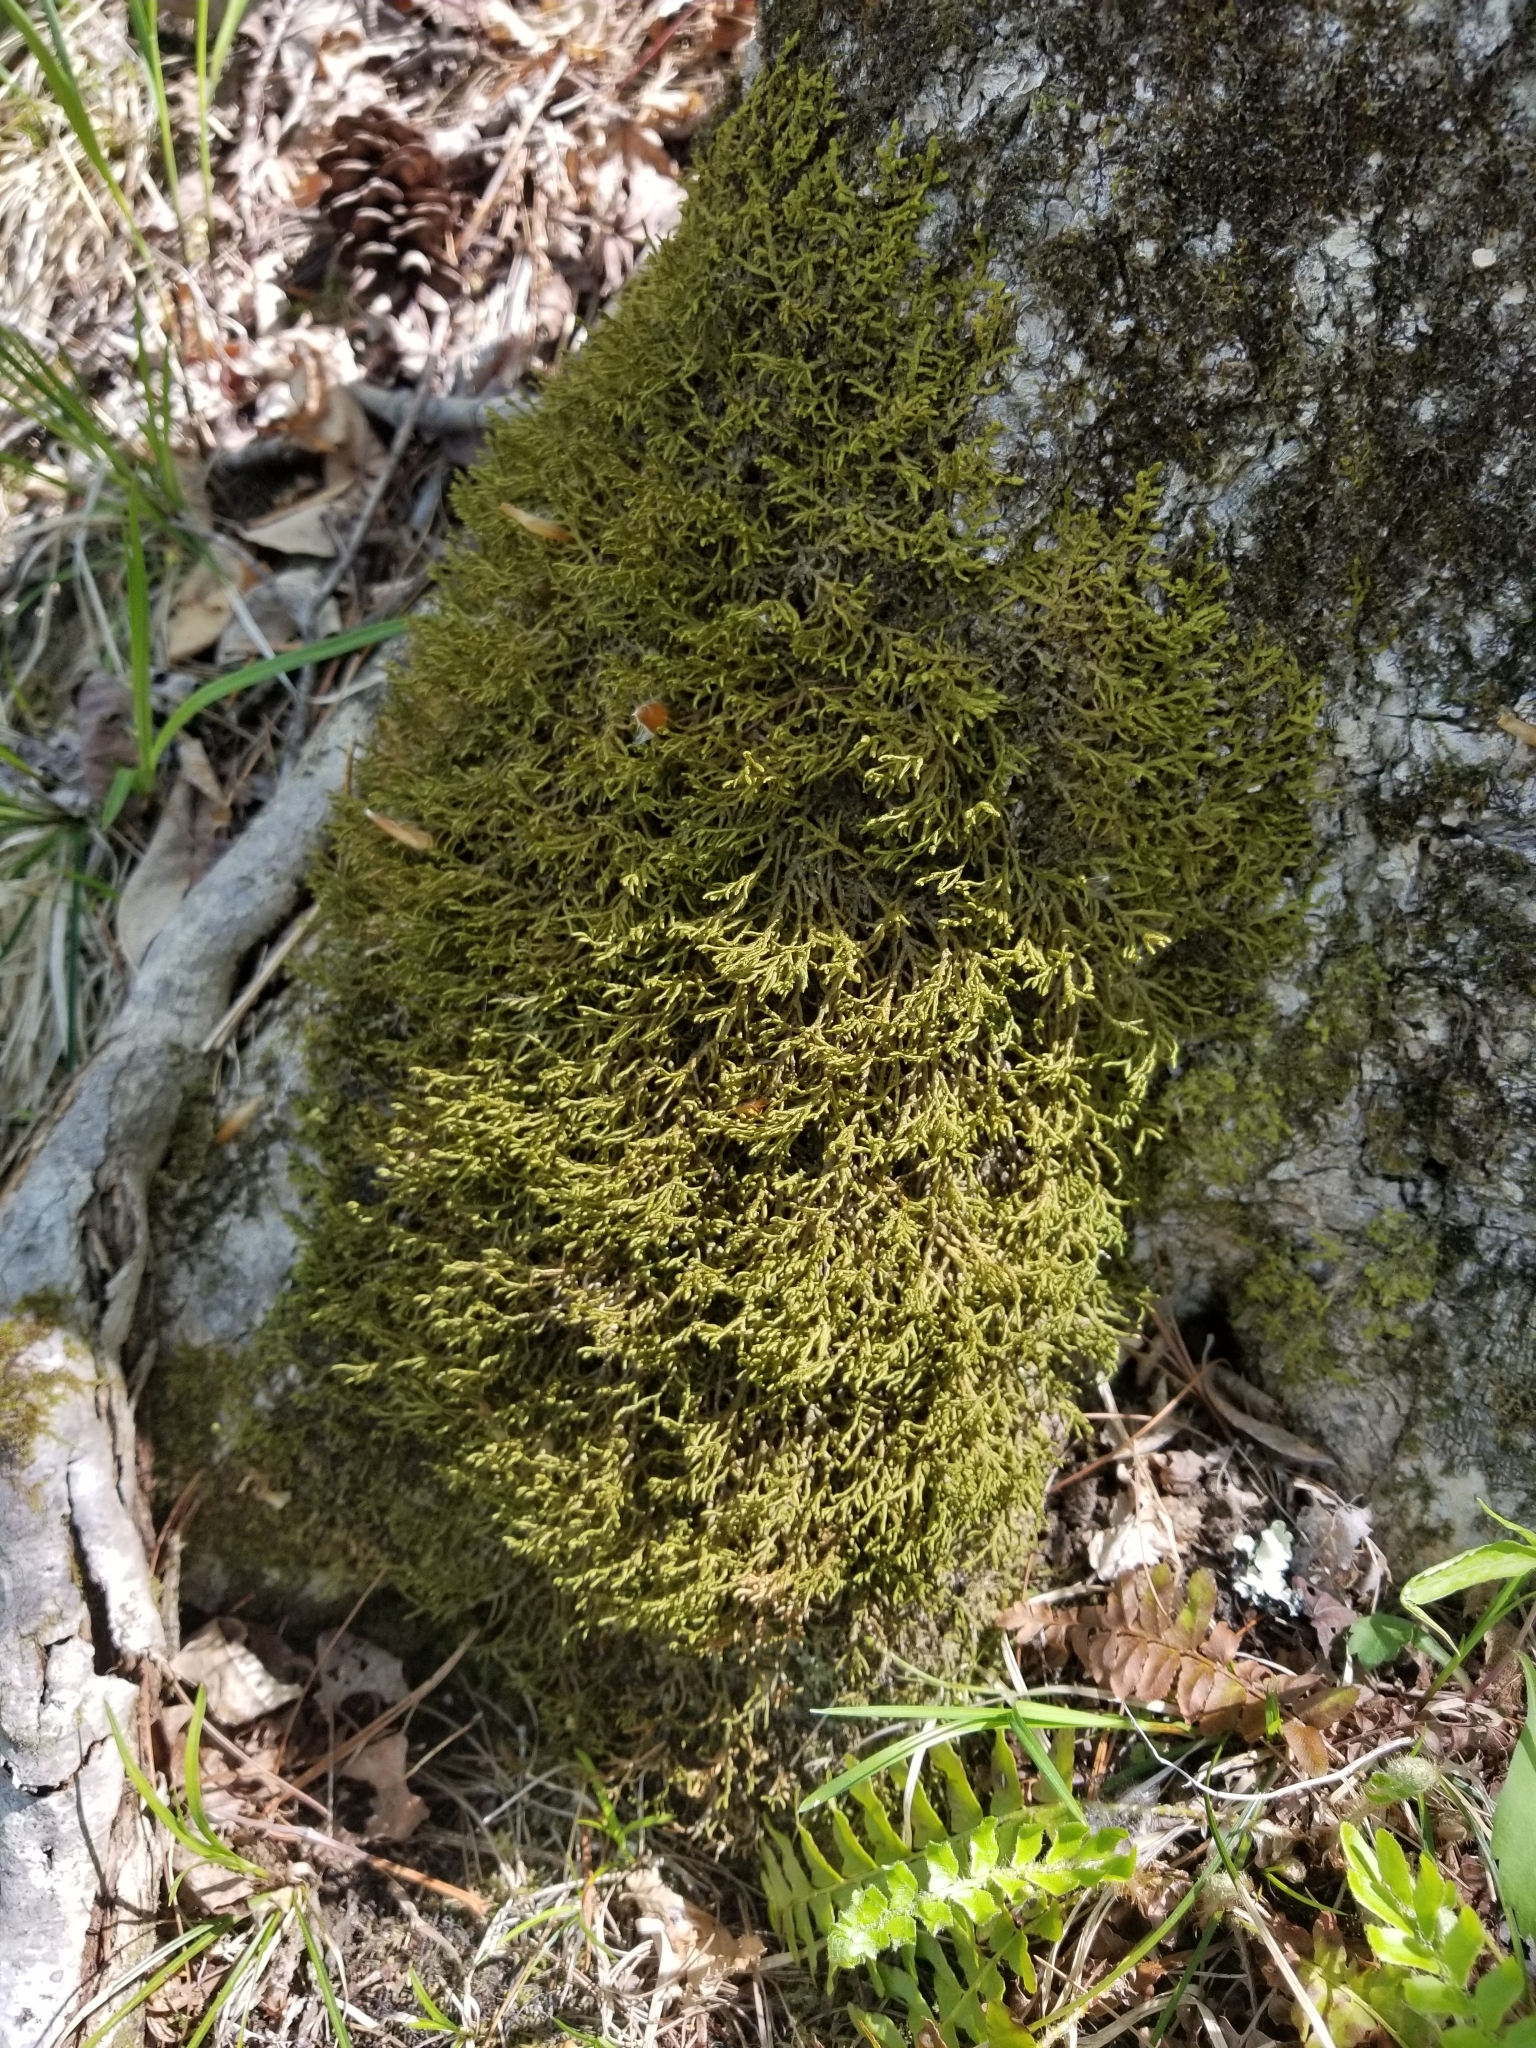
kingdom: Plantae
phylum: Marchantiophyta
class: Jungermanniopsida
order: Porellales
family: Porellaceae
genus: Porella
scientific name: Porella platyphylla
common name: Wall scalewort
